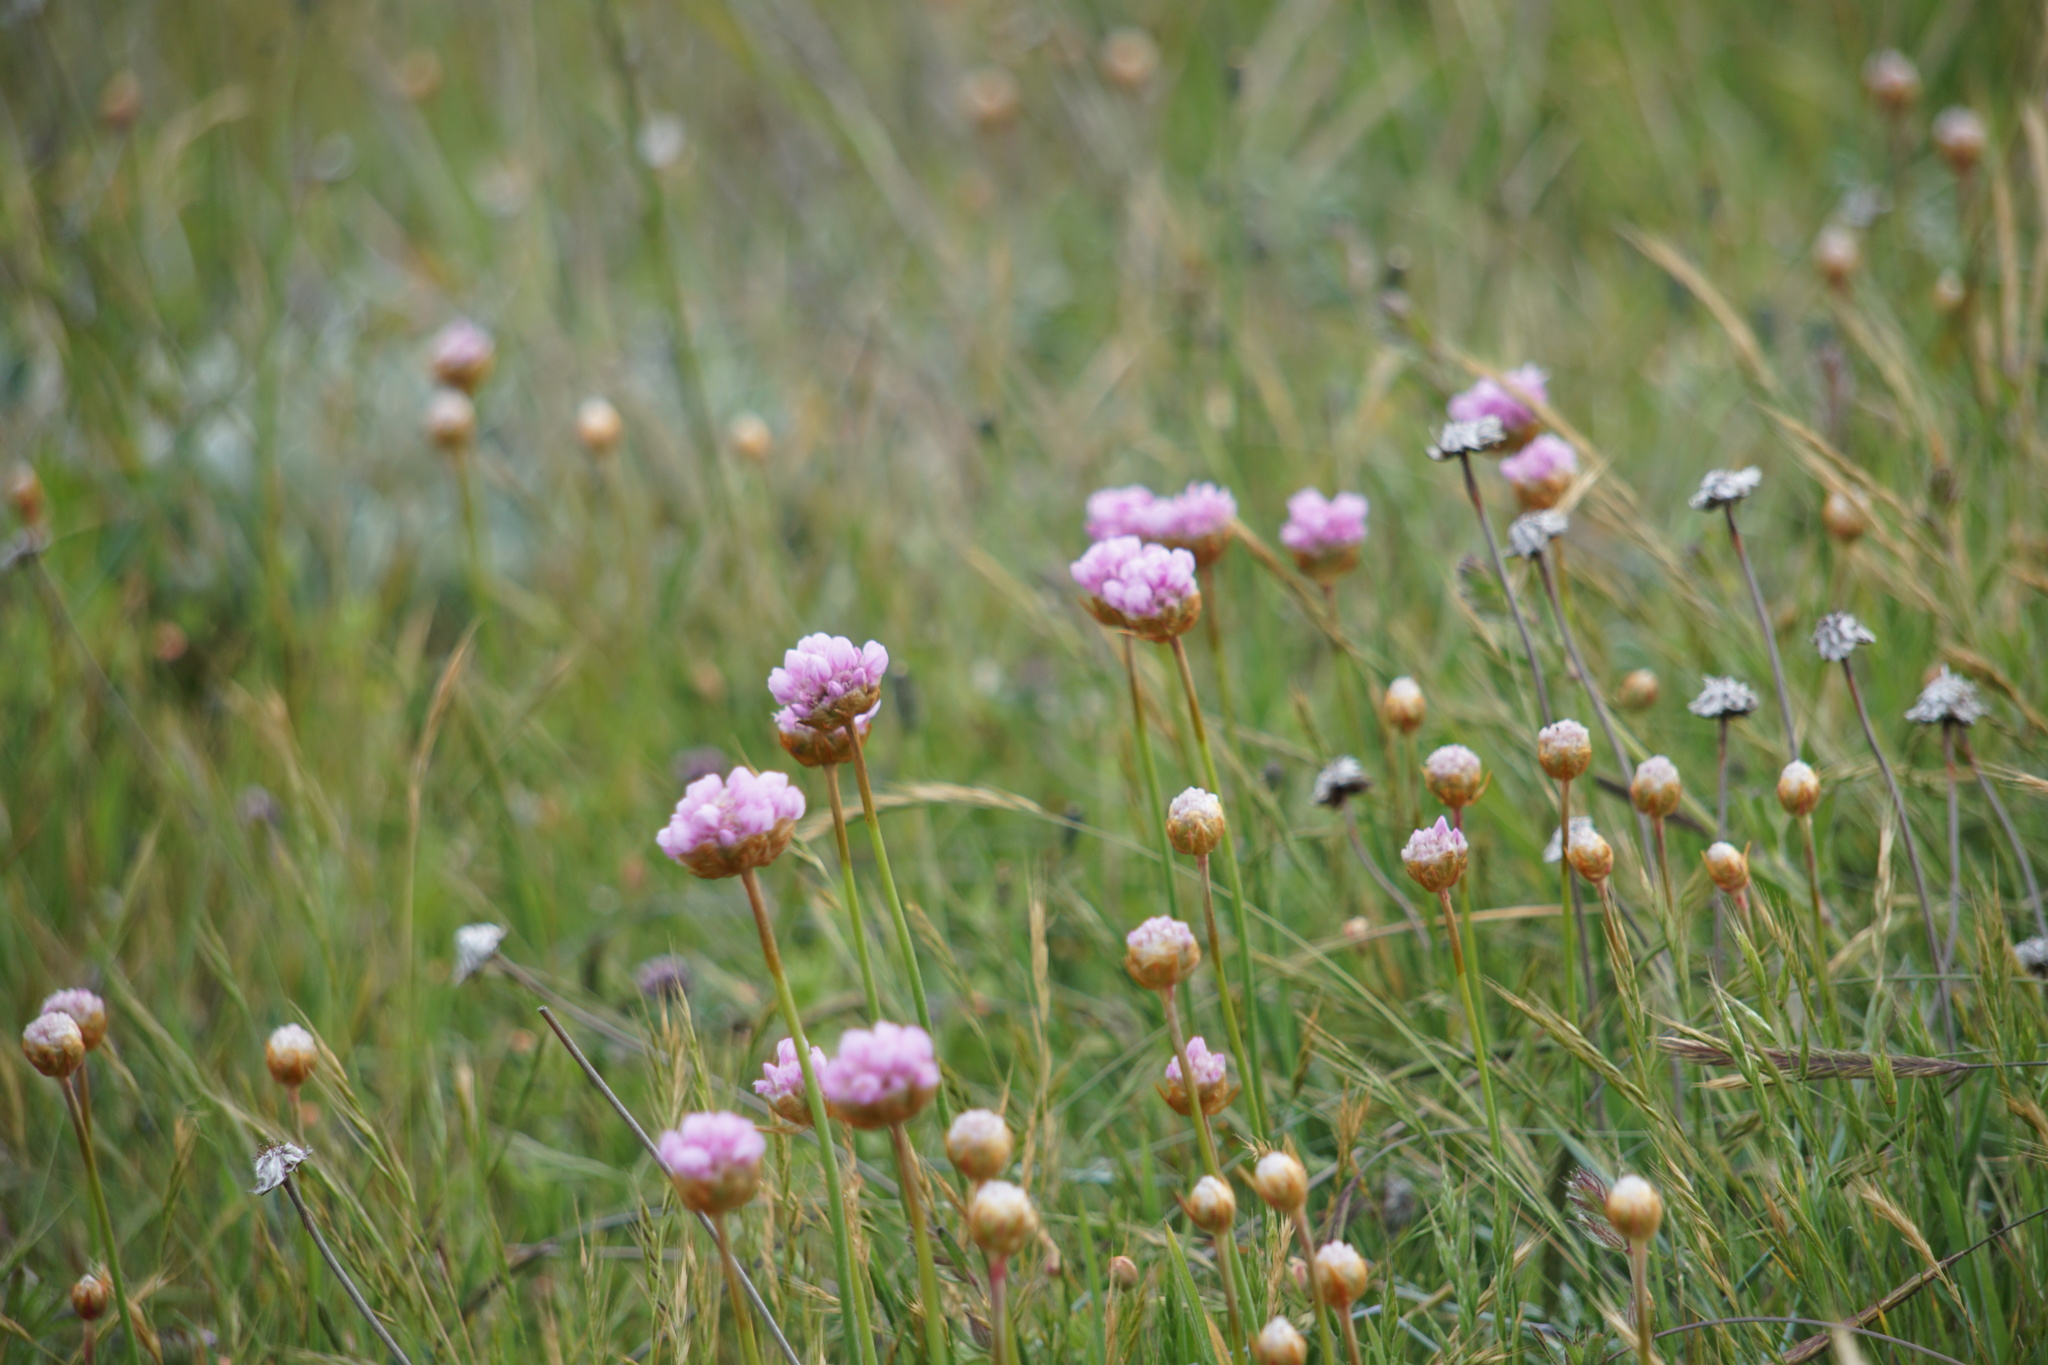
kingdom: Plantae
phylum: Tracheophyta
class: Magnoliopsida
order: Caryophyllales
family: Plumbaginaceae
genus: Armeria
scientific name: Armeria maritima
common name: Thrift
